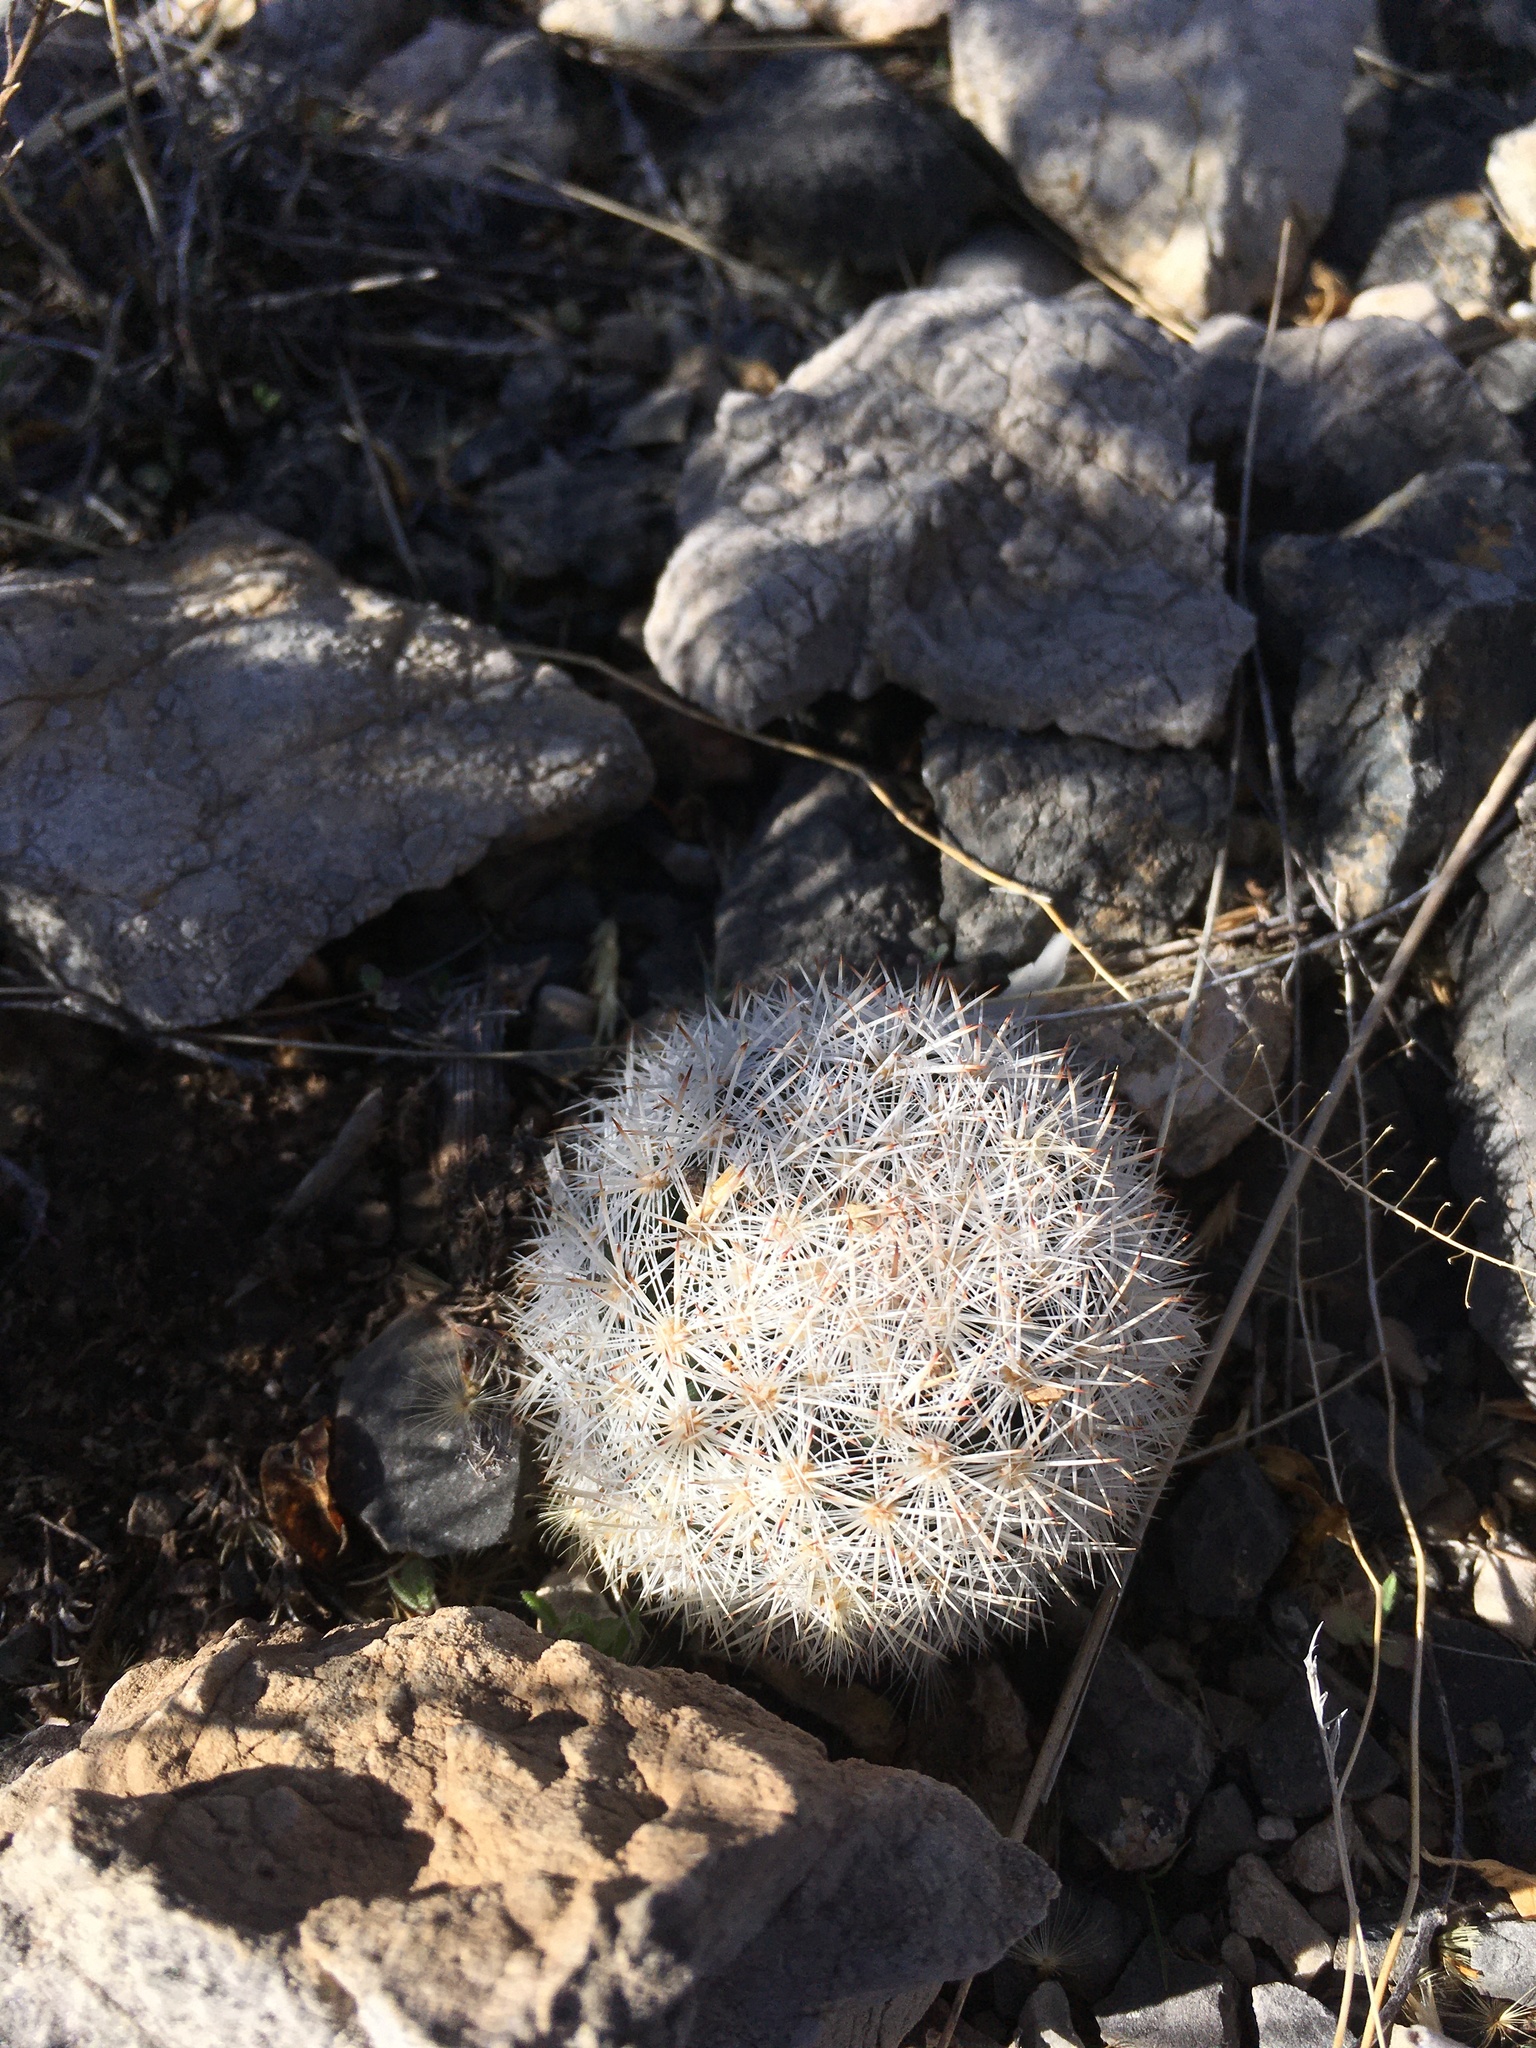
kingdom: Plantae
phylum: Tracheophyta
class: Magnoliopsida
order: Caryophyllales
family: Cactaceae
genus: Pelecyphora
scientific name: Pelecyphora sneedii
